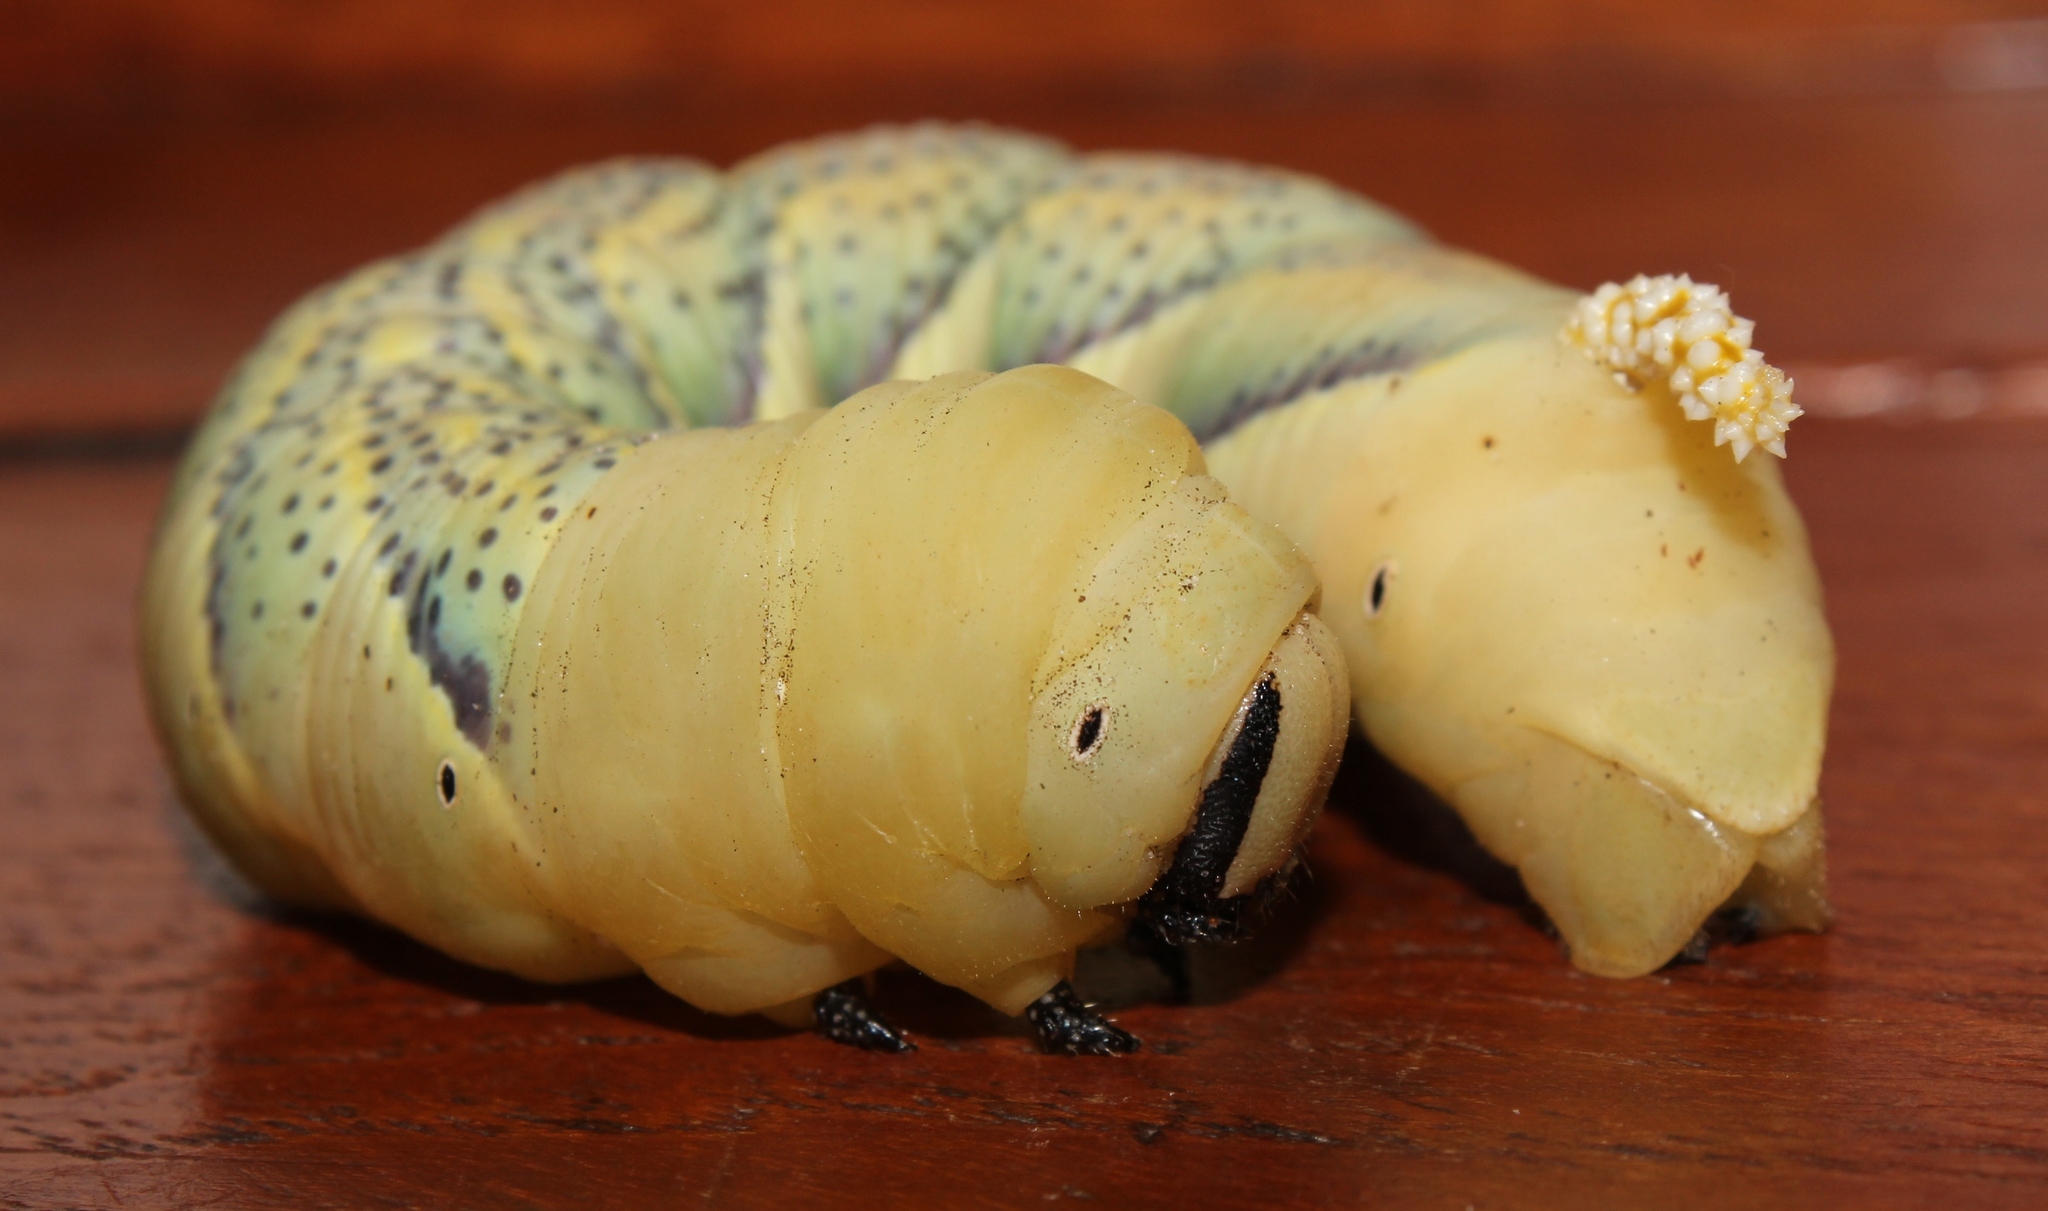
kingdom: Animalia
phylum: Arthropoda
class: Insecta
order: Lepidoptera
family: Sphingidae
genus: Acherontia
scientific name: Acherontia atropos
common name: Death's-head hawk moth
